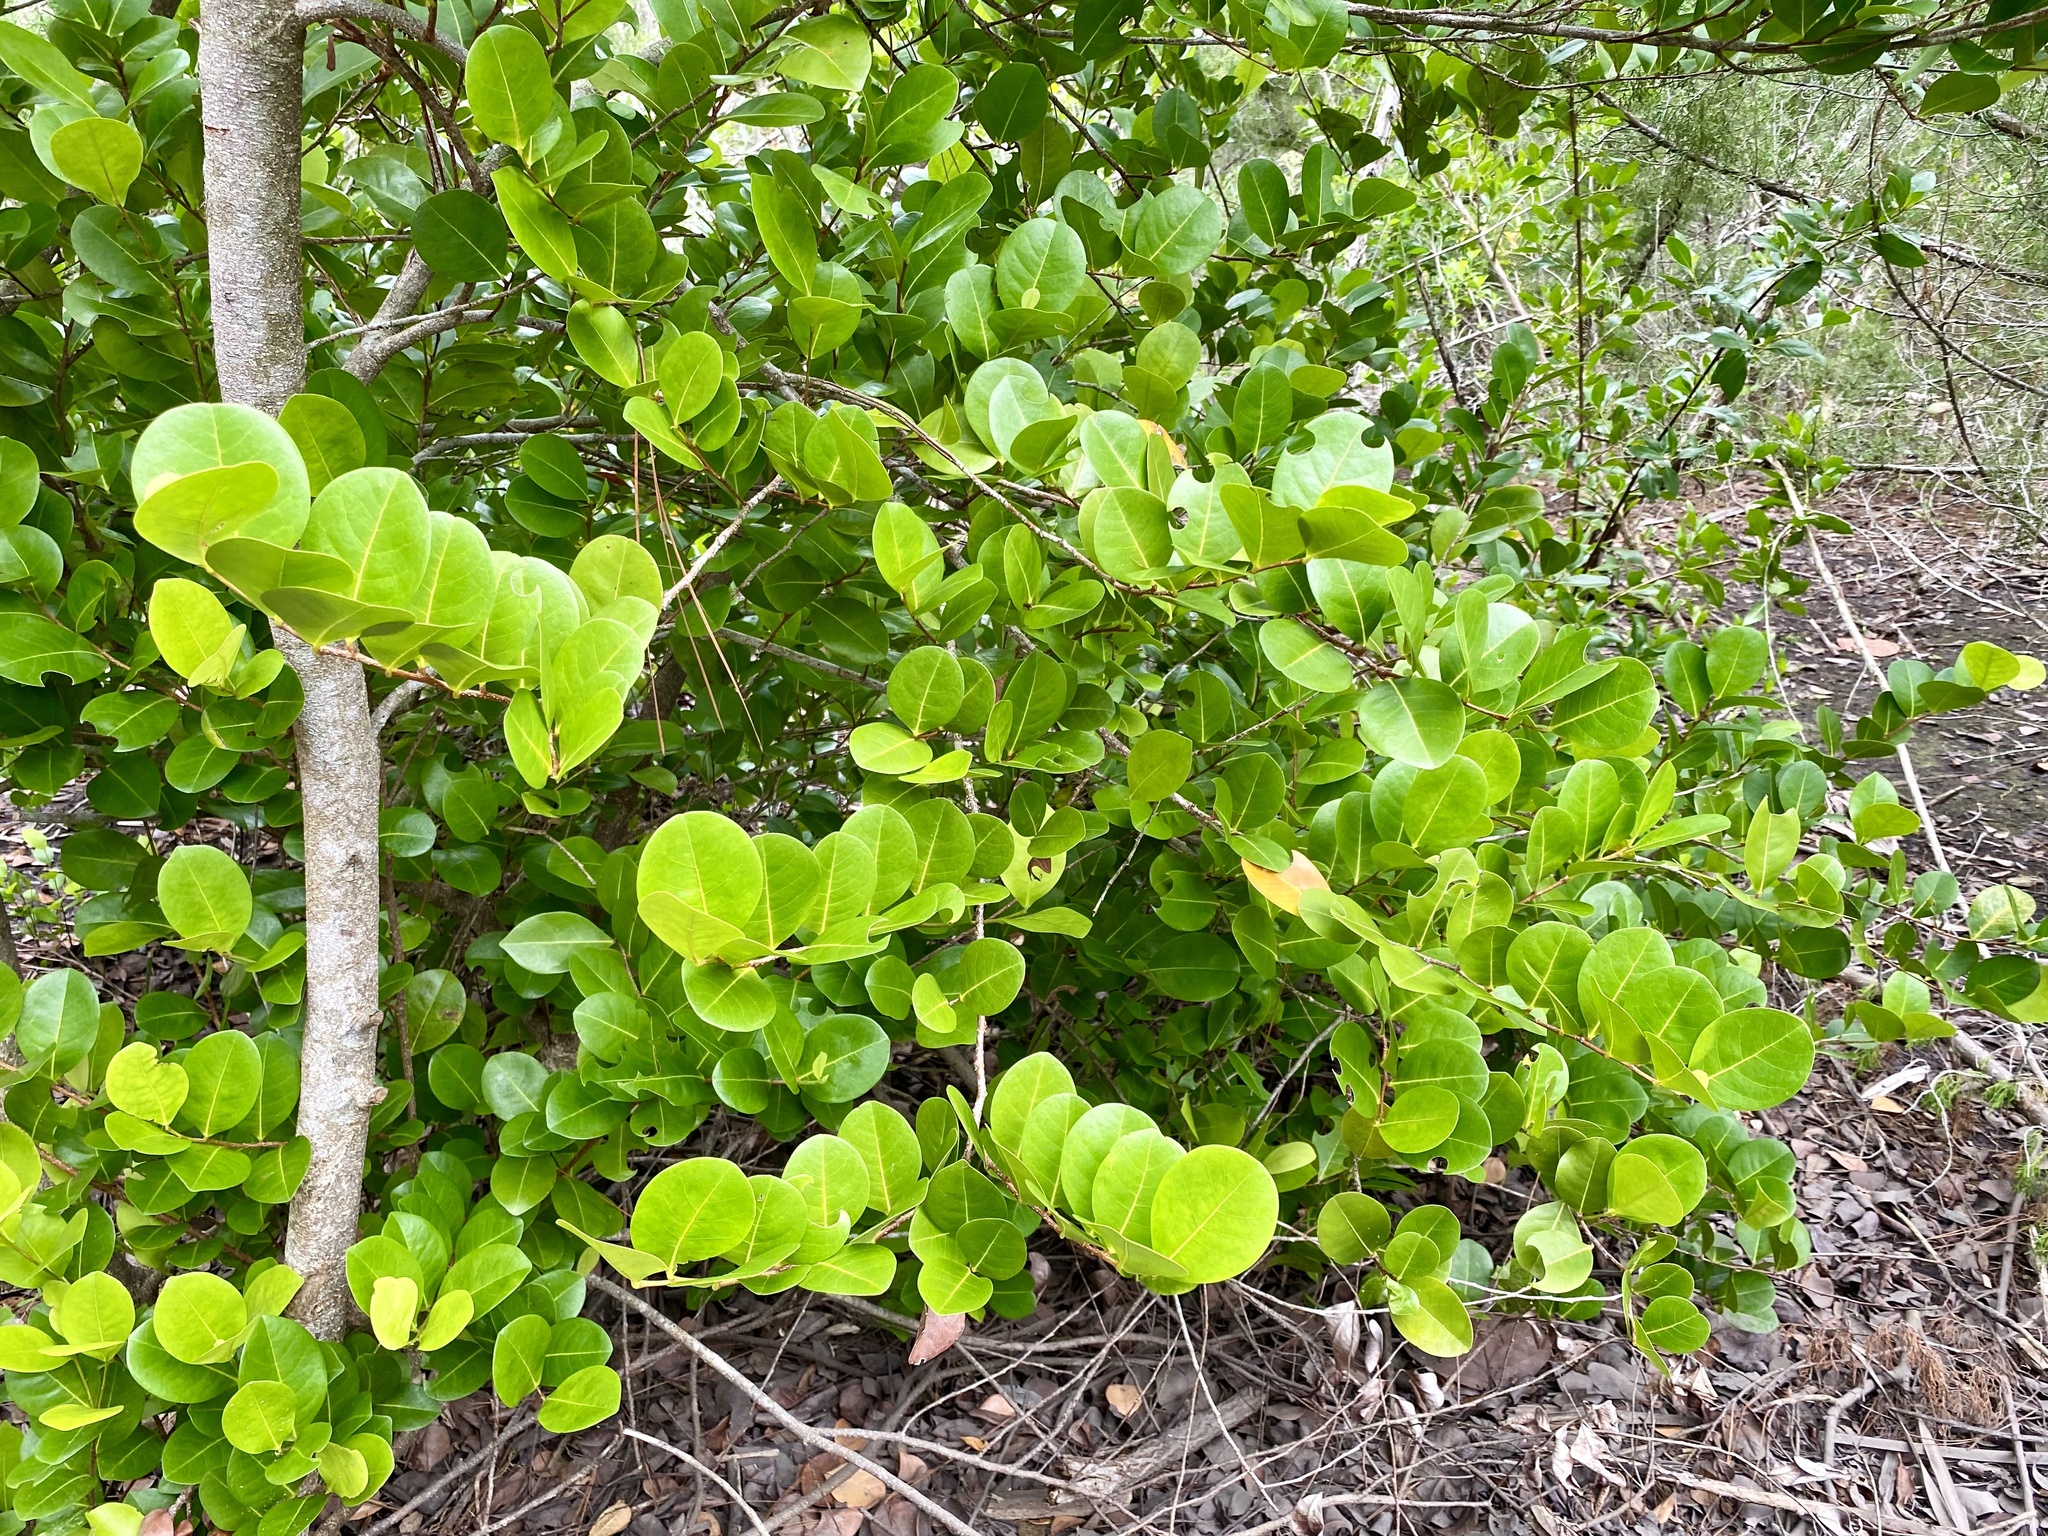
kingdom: Plantae
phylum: Tracheophyta
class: Magnoliopsida
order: Malpighiales
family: Chrysobalanaceae
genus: Chrysobalanus
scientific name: Chrysobalanus icaco
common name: Coco plum
